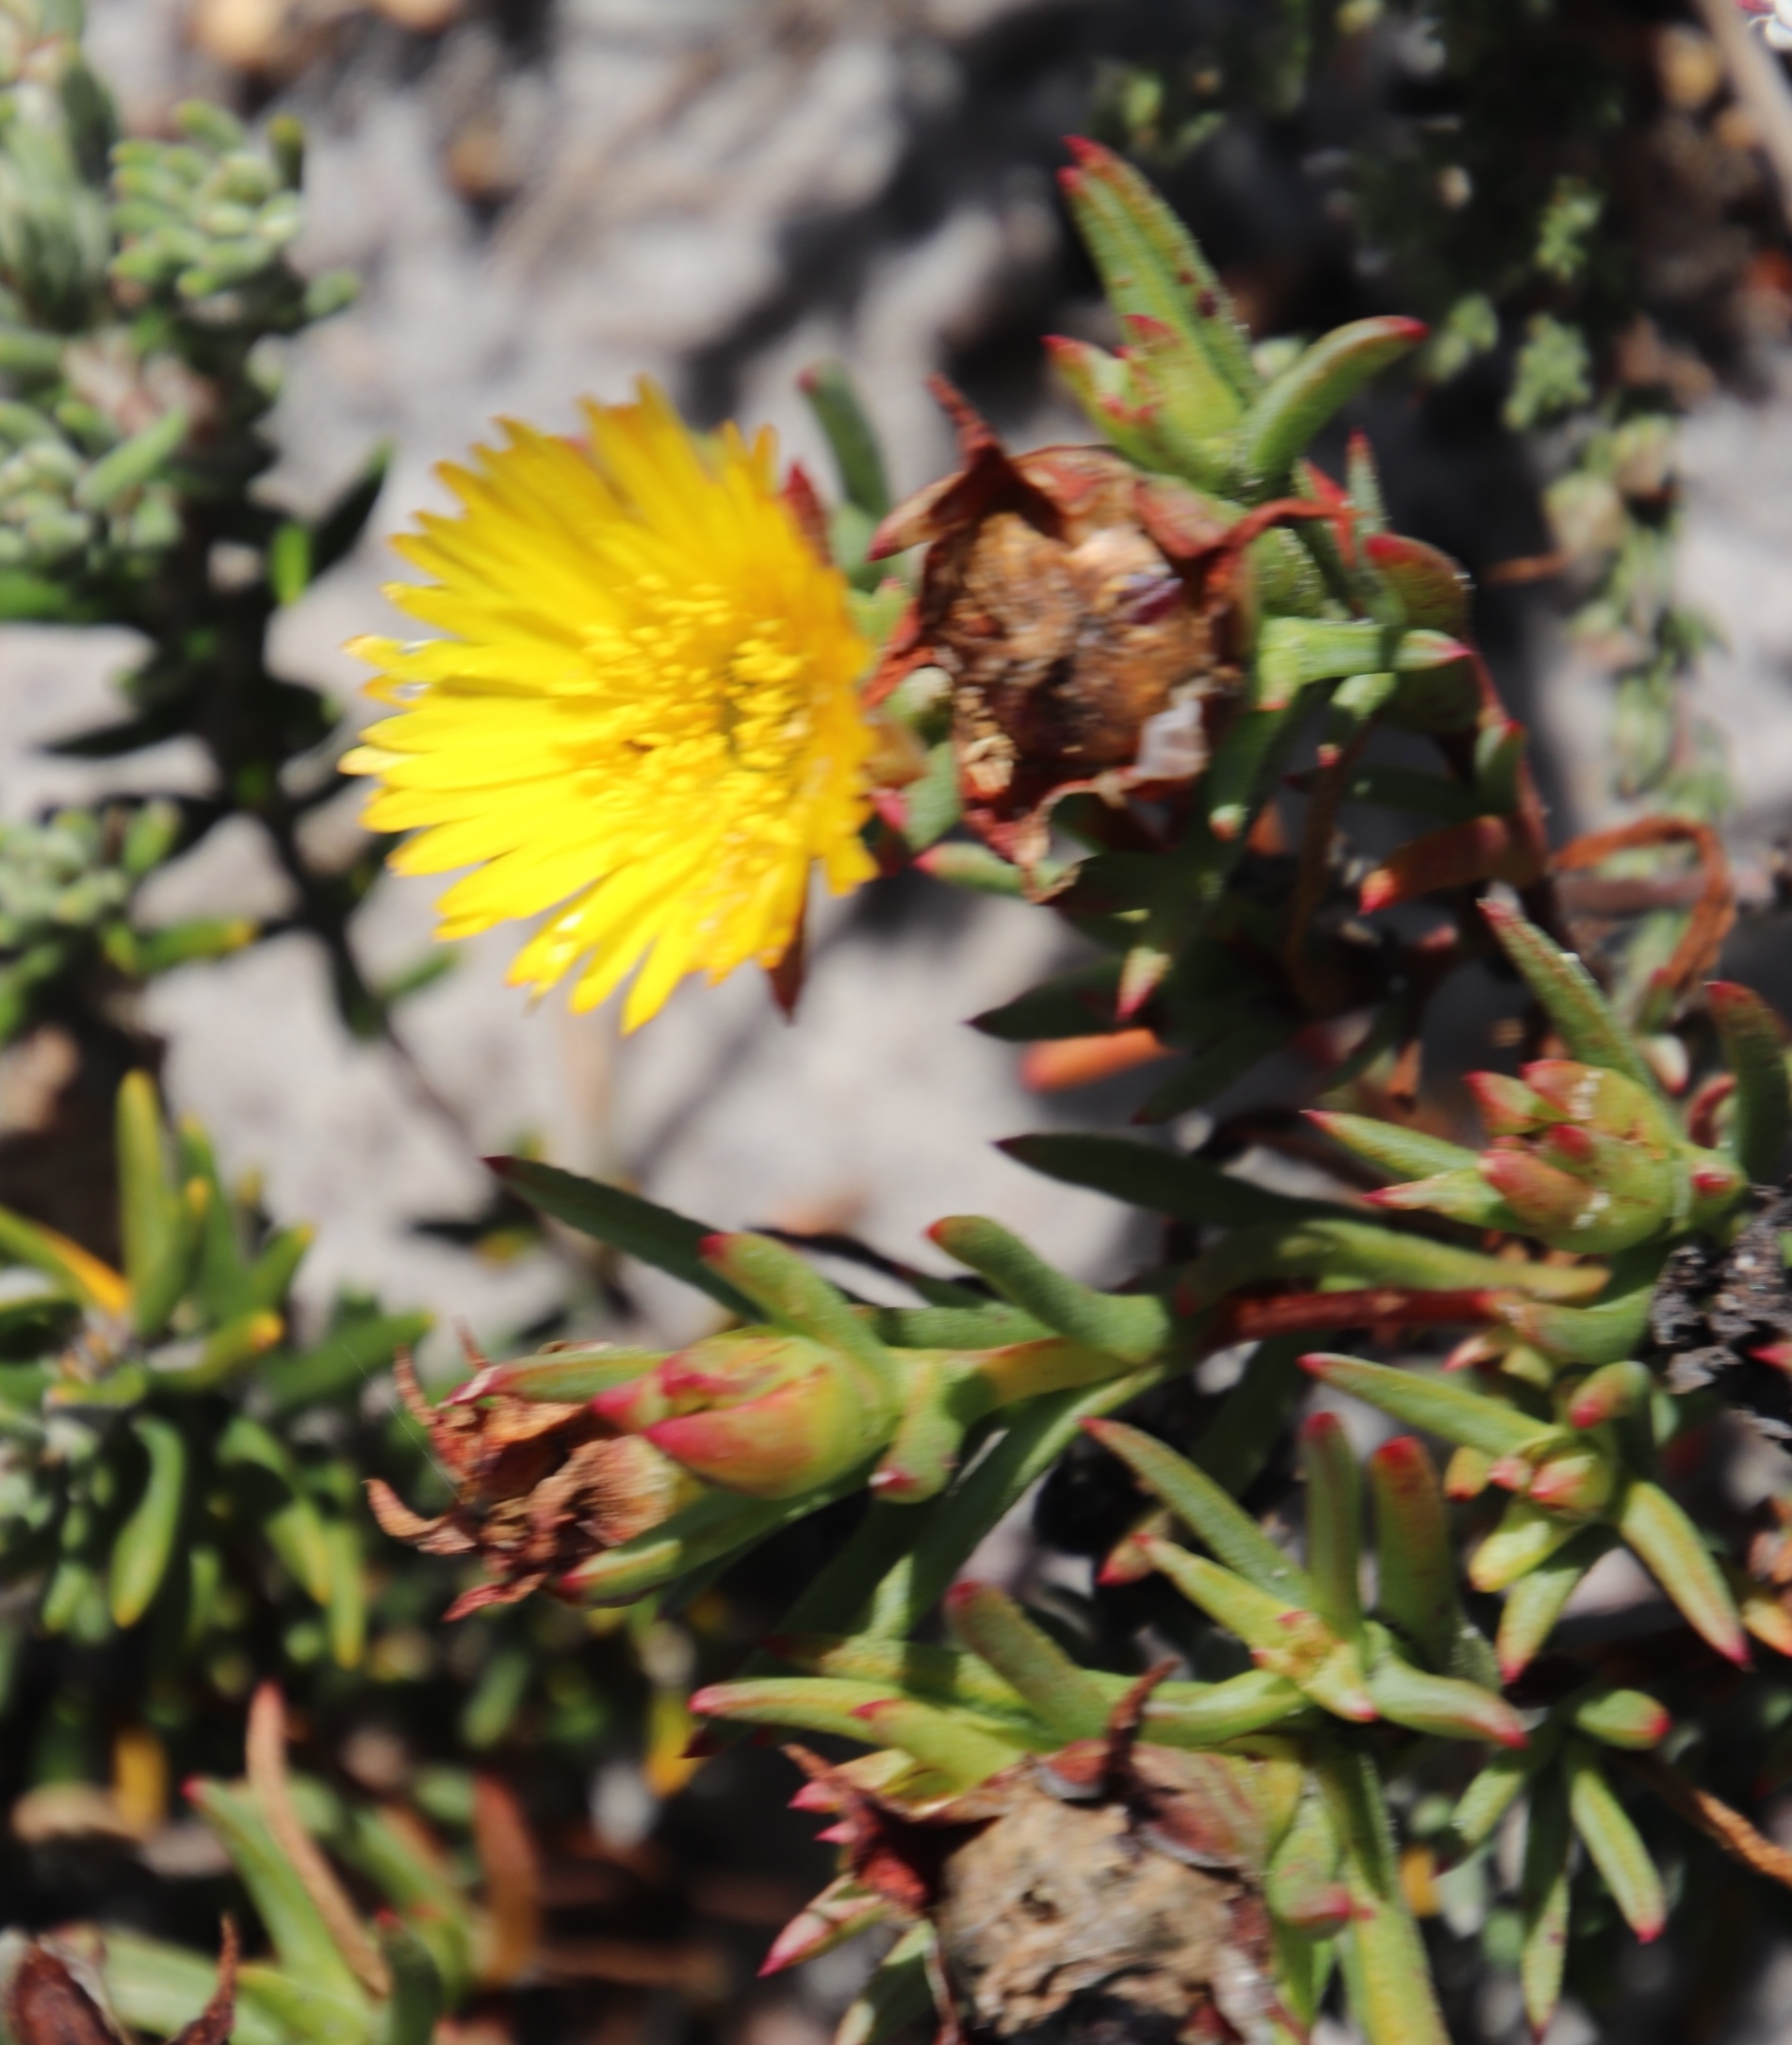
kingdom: Plantae
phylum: Tracheophyta
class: Magnoliopsida
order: Caryophyllales
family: Aizoaceae
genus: Lampranthus
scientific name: Lampranthus bicolor
